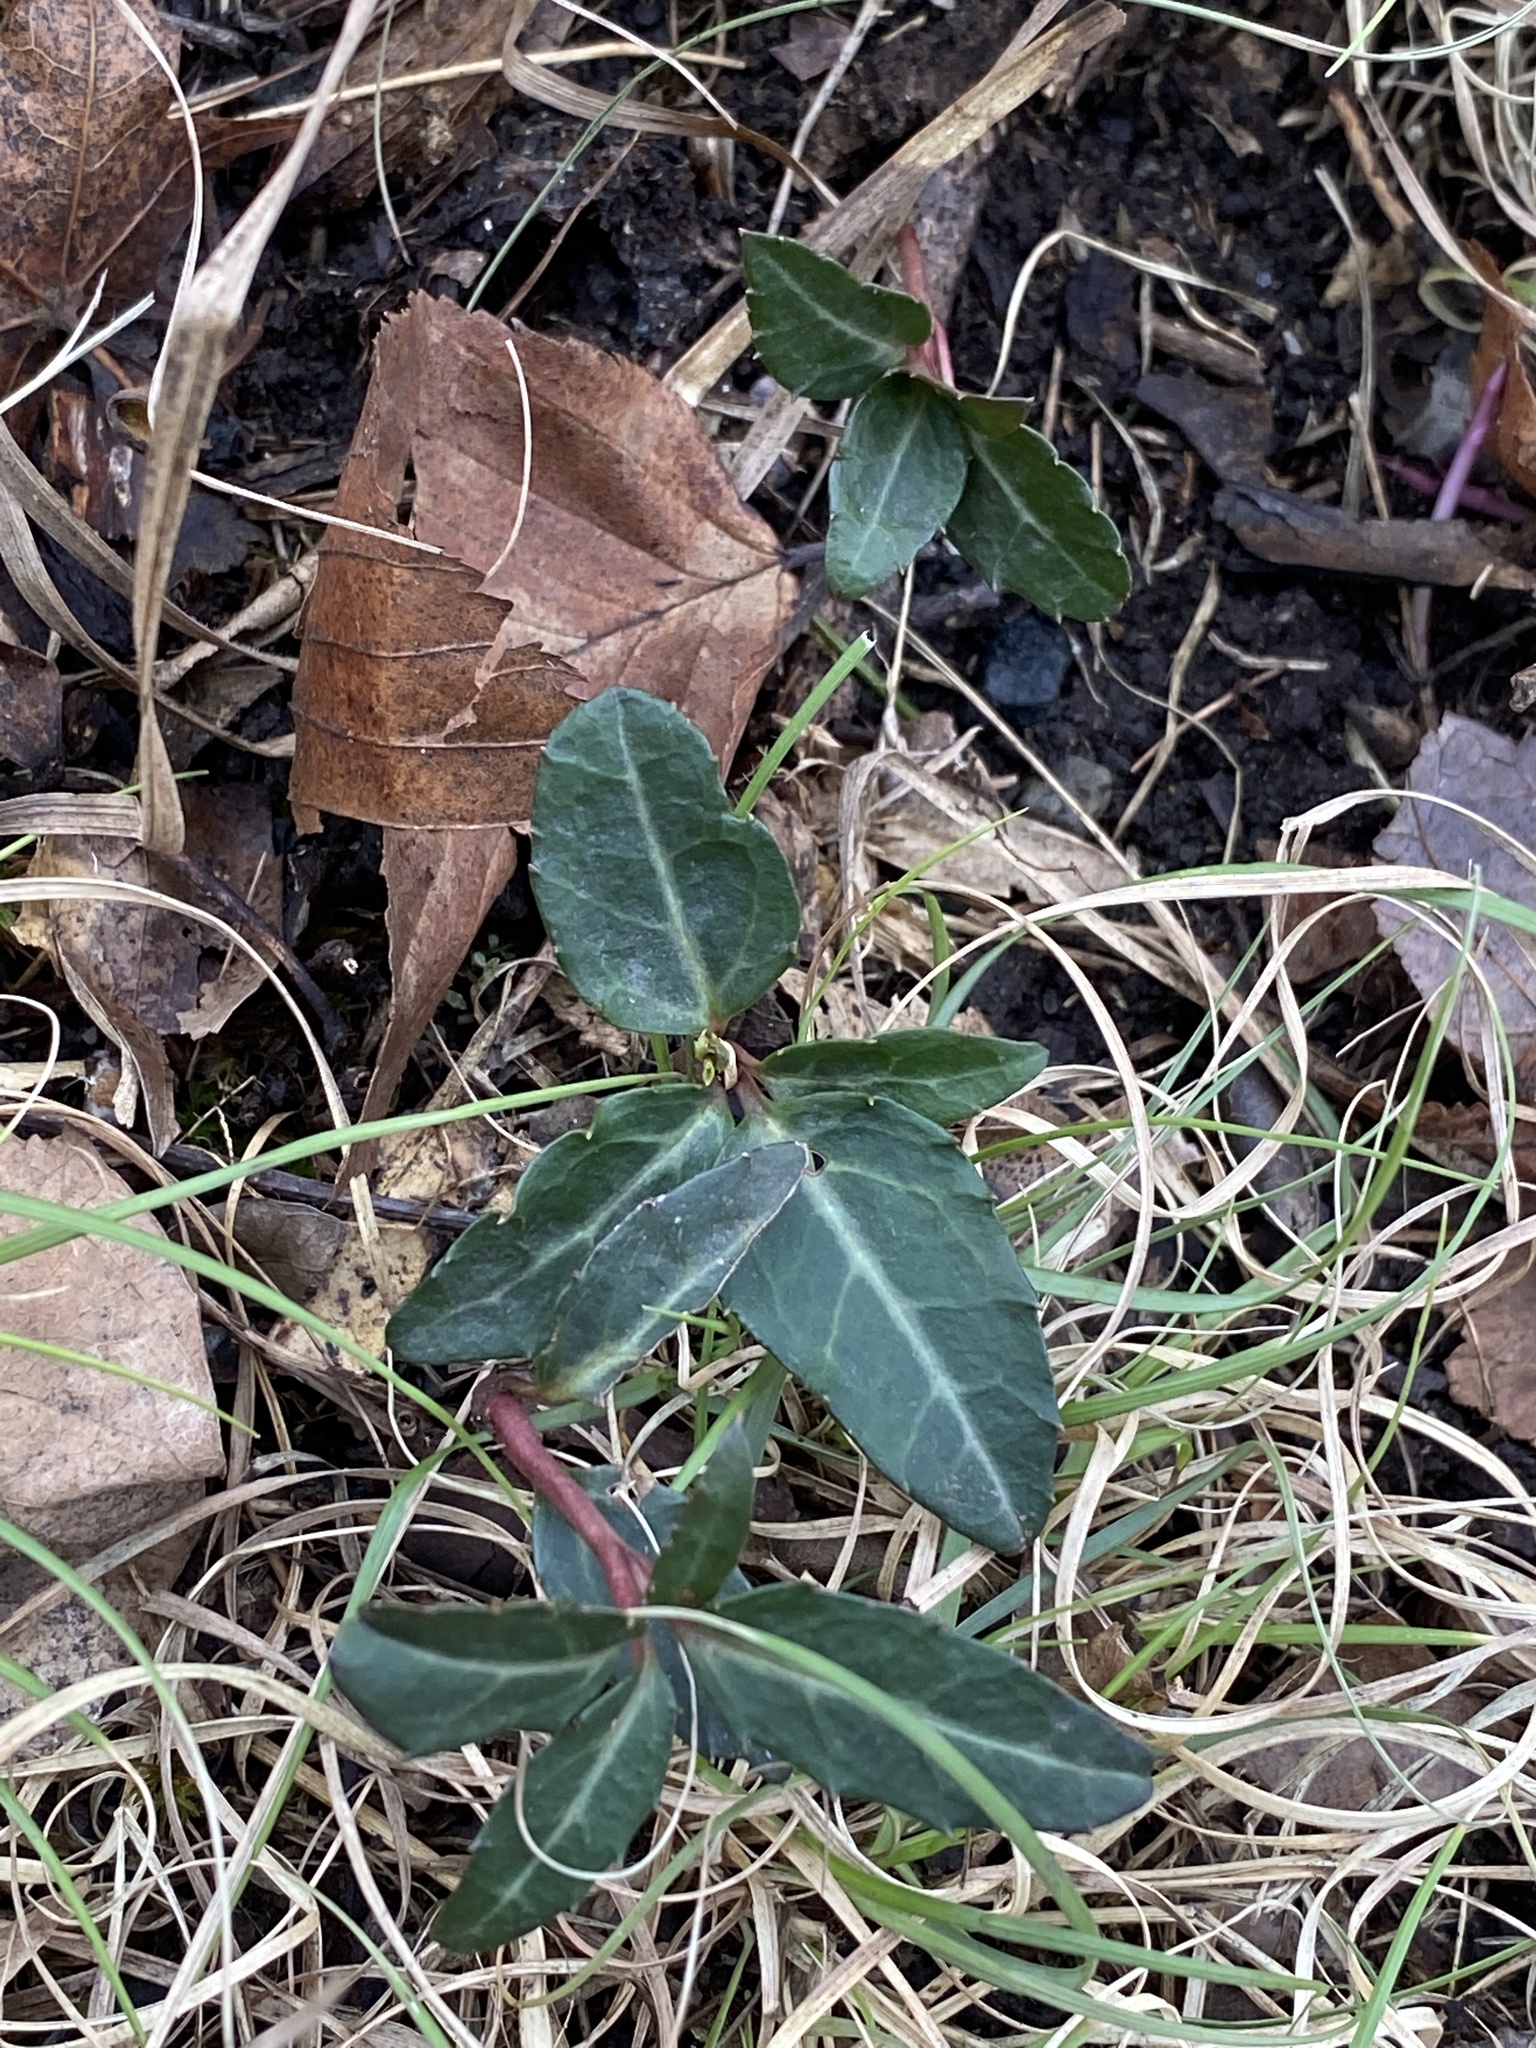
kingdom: Plantae
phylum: Tracheophyta
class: Magnoliopsida
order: Ericales
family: Ericaceae
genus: Chimaphila
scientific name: Chimaphila maculata
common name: Spotted pipsissewa
